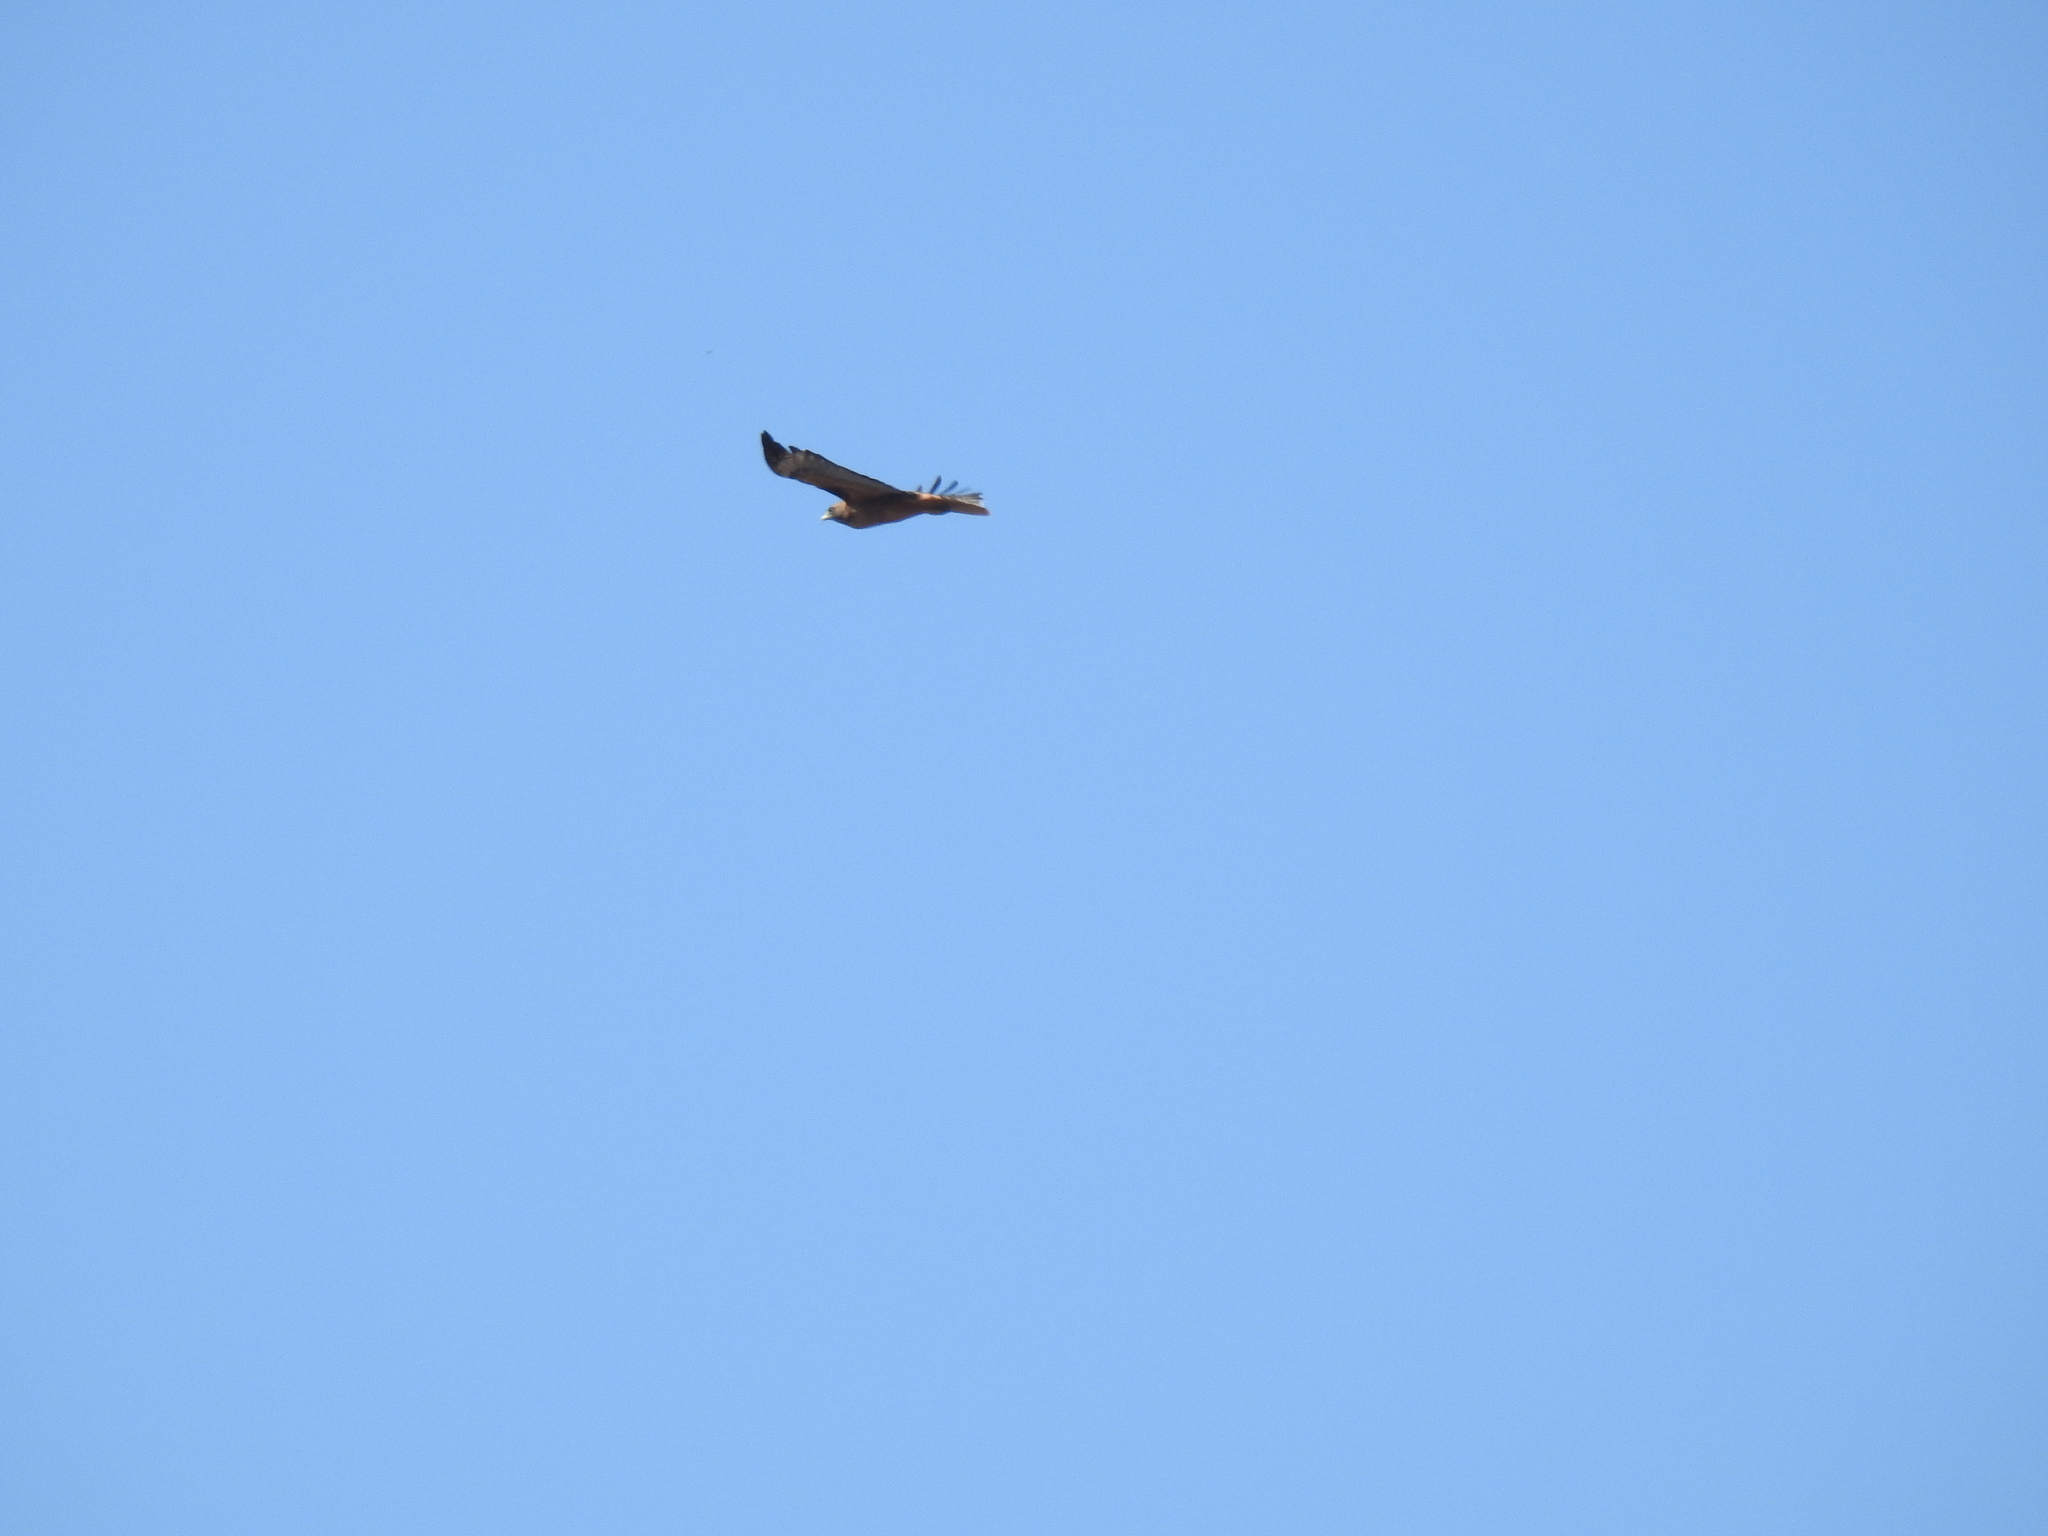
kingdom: Animalia
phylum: Chordata
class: Aves
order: Accipitriformes
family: Accipitridae
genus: Buteo
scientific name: Buteo jamaicensis
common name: Red-tailed hawk
